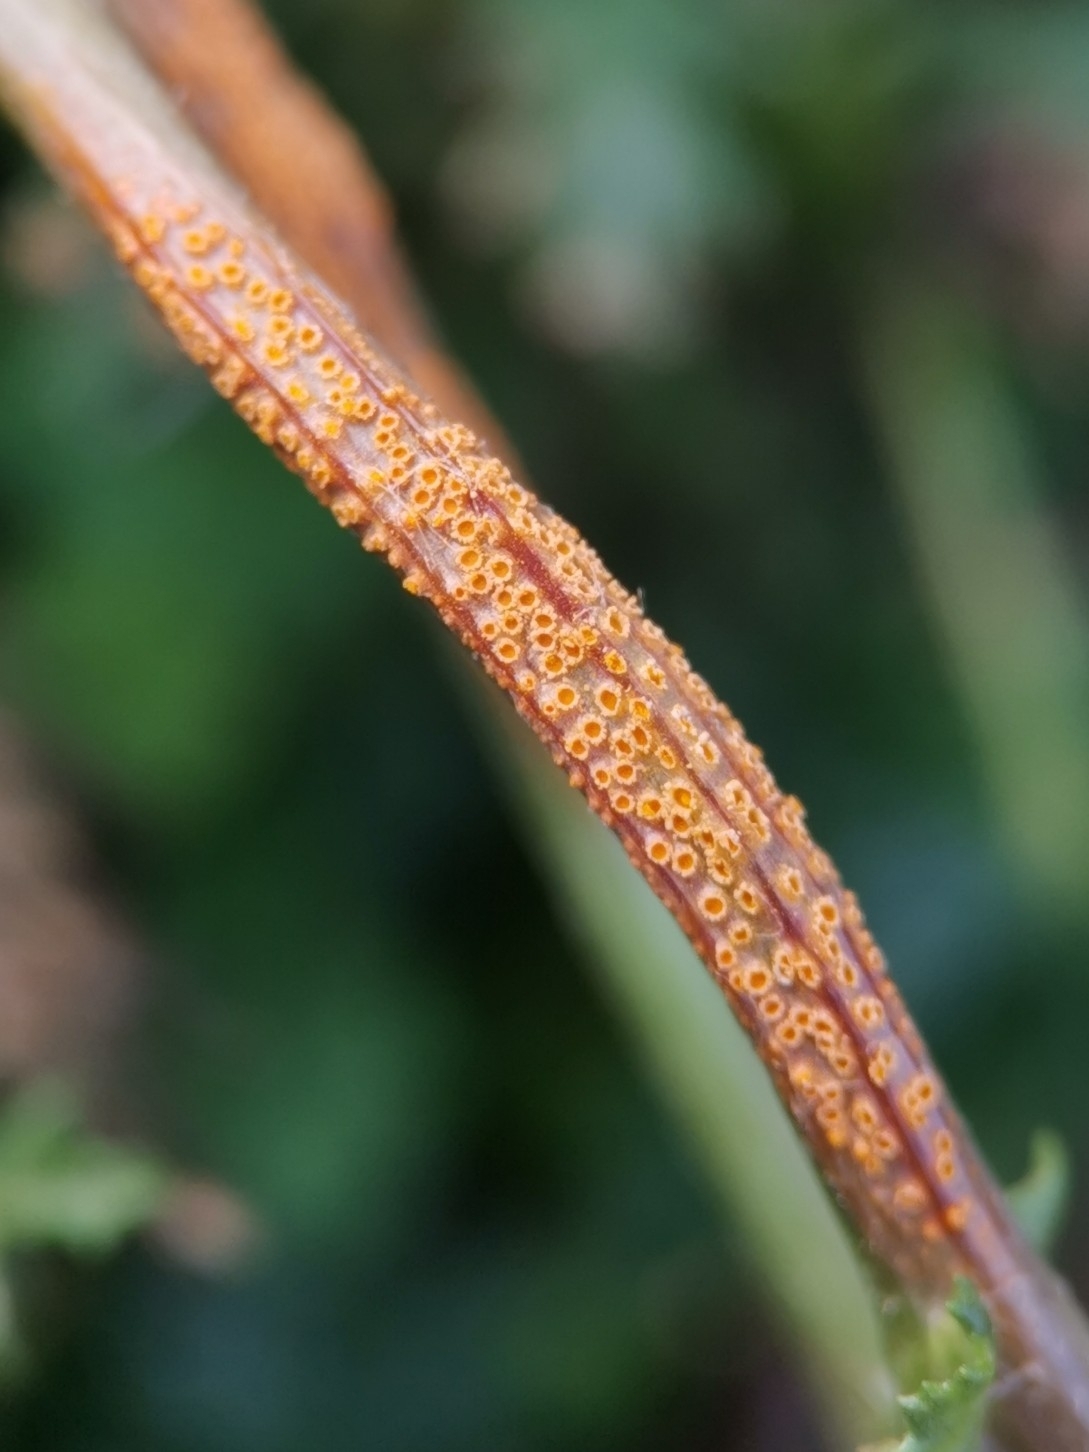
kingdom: Fungi
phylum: Basidiomycota
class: Pucciniomycetes
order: Pucciniales
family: Pucciniaceae
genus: Puccinia
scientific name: Puccinia lagenophorae
